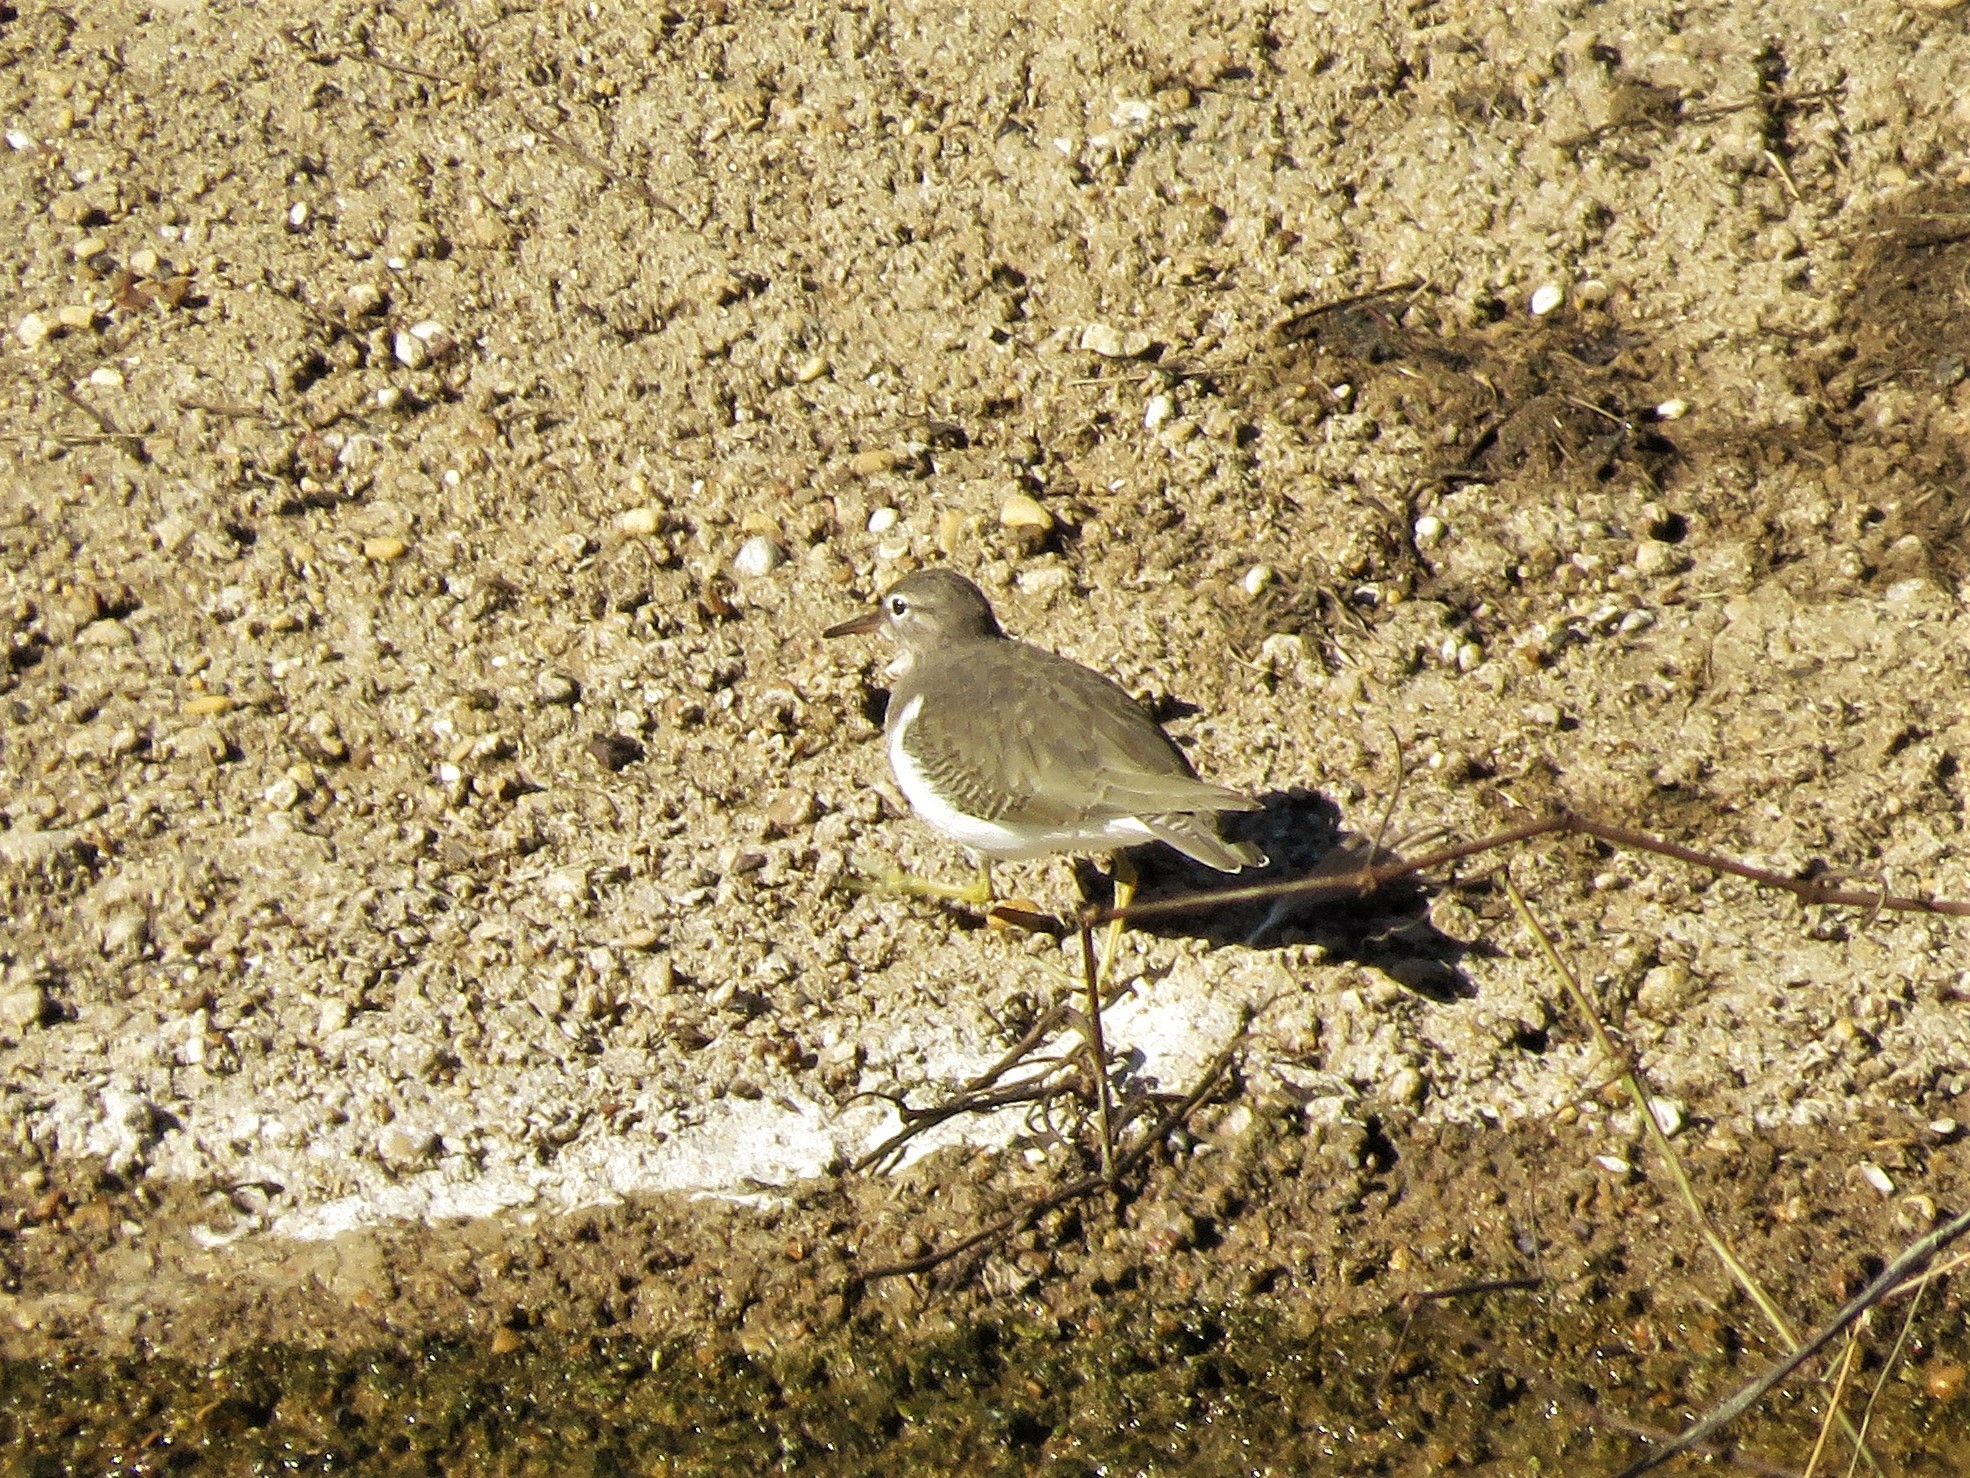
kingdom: Animalia
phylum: Chordata
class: Aves
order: Charadriiformes
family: Scolopacidae
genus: Actitis
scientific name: Actitis macularius
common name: Spotted sandpiper
